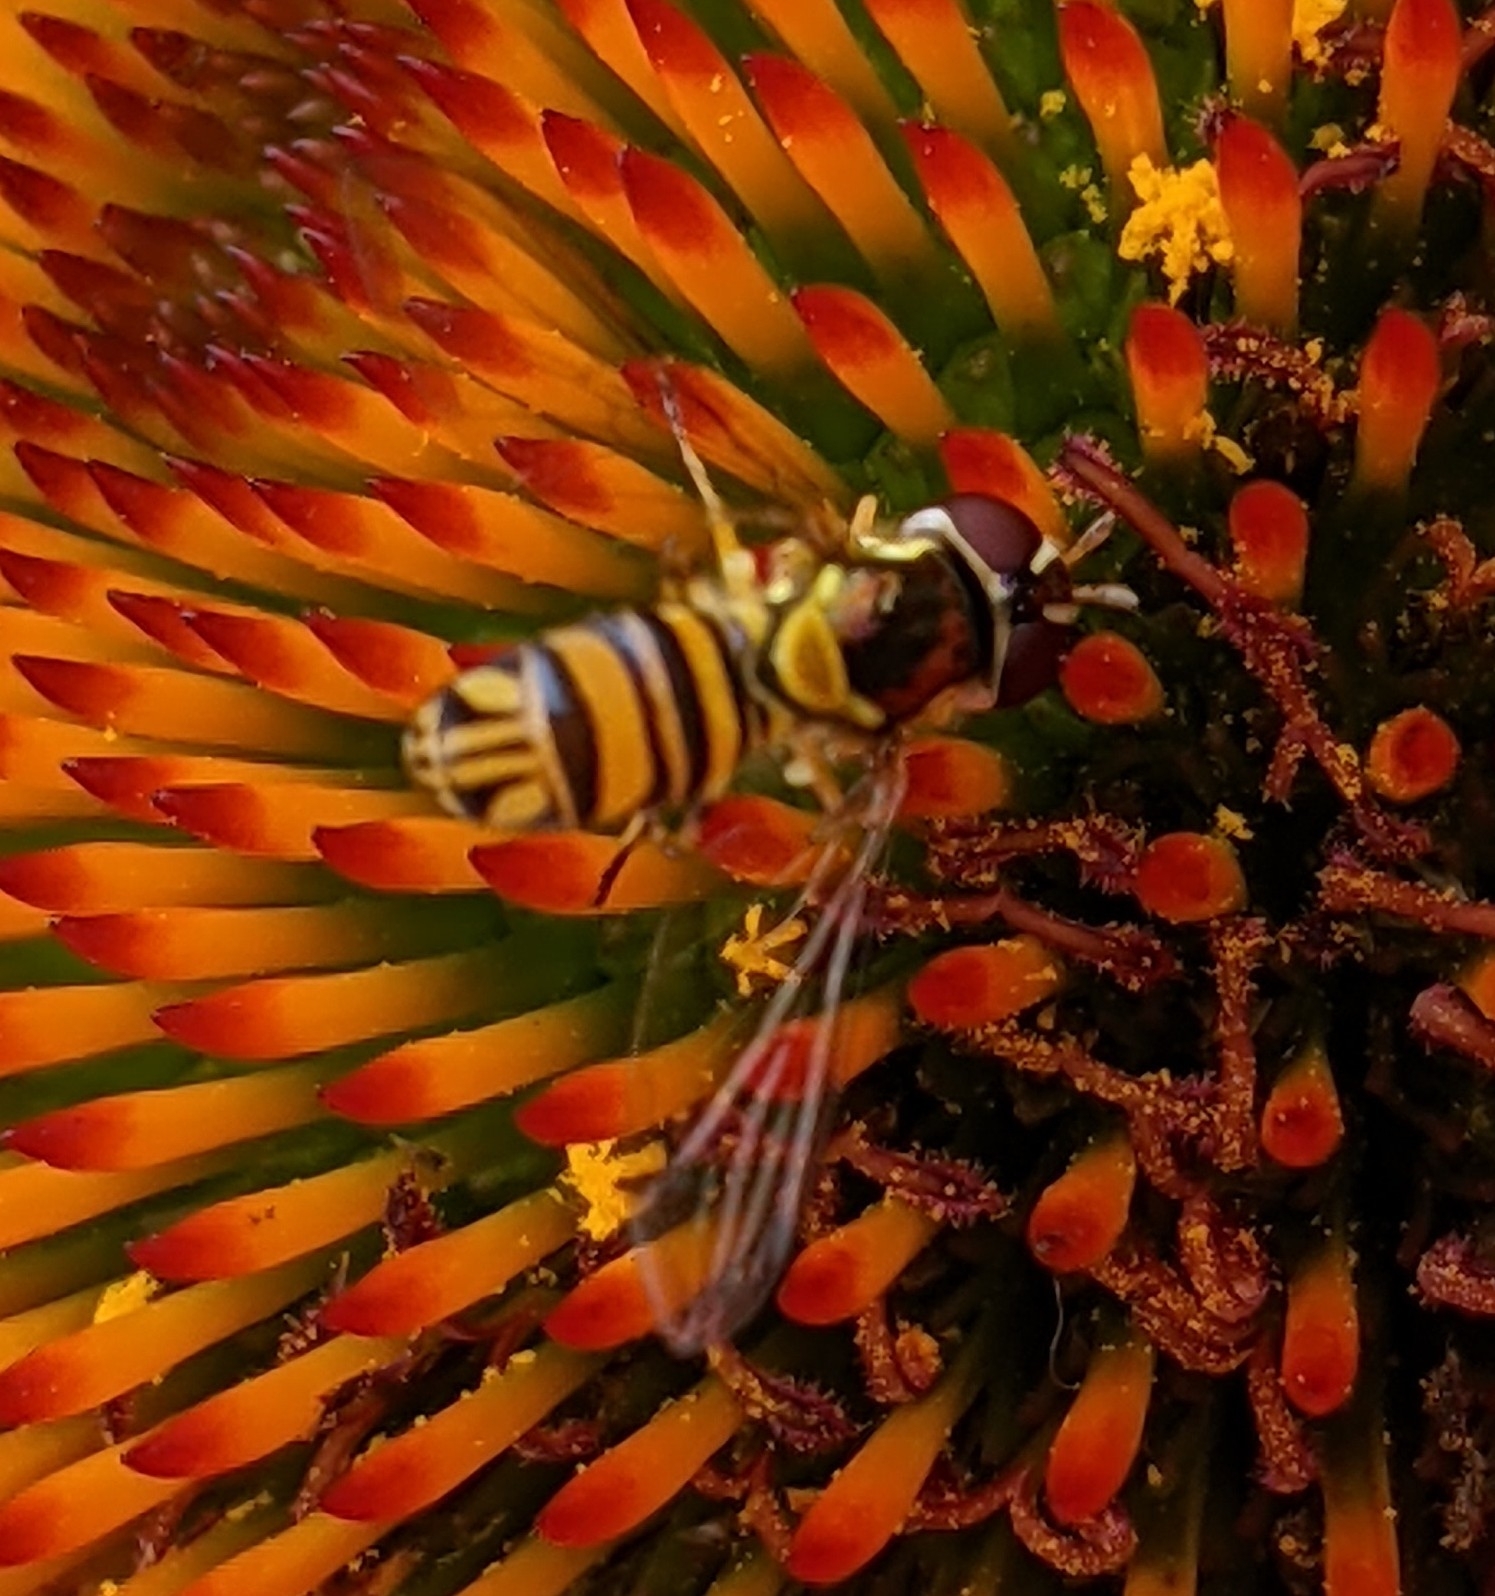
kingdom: Animalia
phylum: Arthropoda
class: Insecta
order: Diptera
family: Syrphidae
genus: Allograpta
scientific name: Allograpta obliqua
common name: Common oblique syrphid
